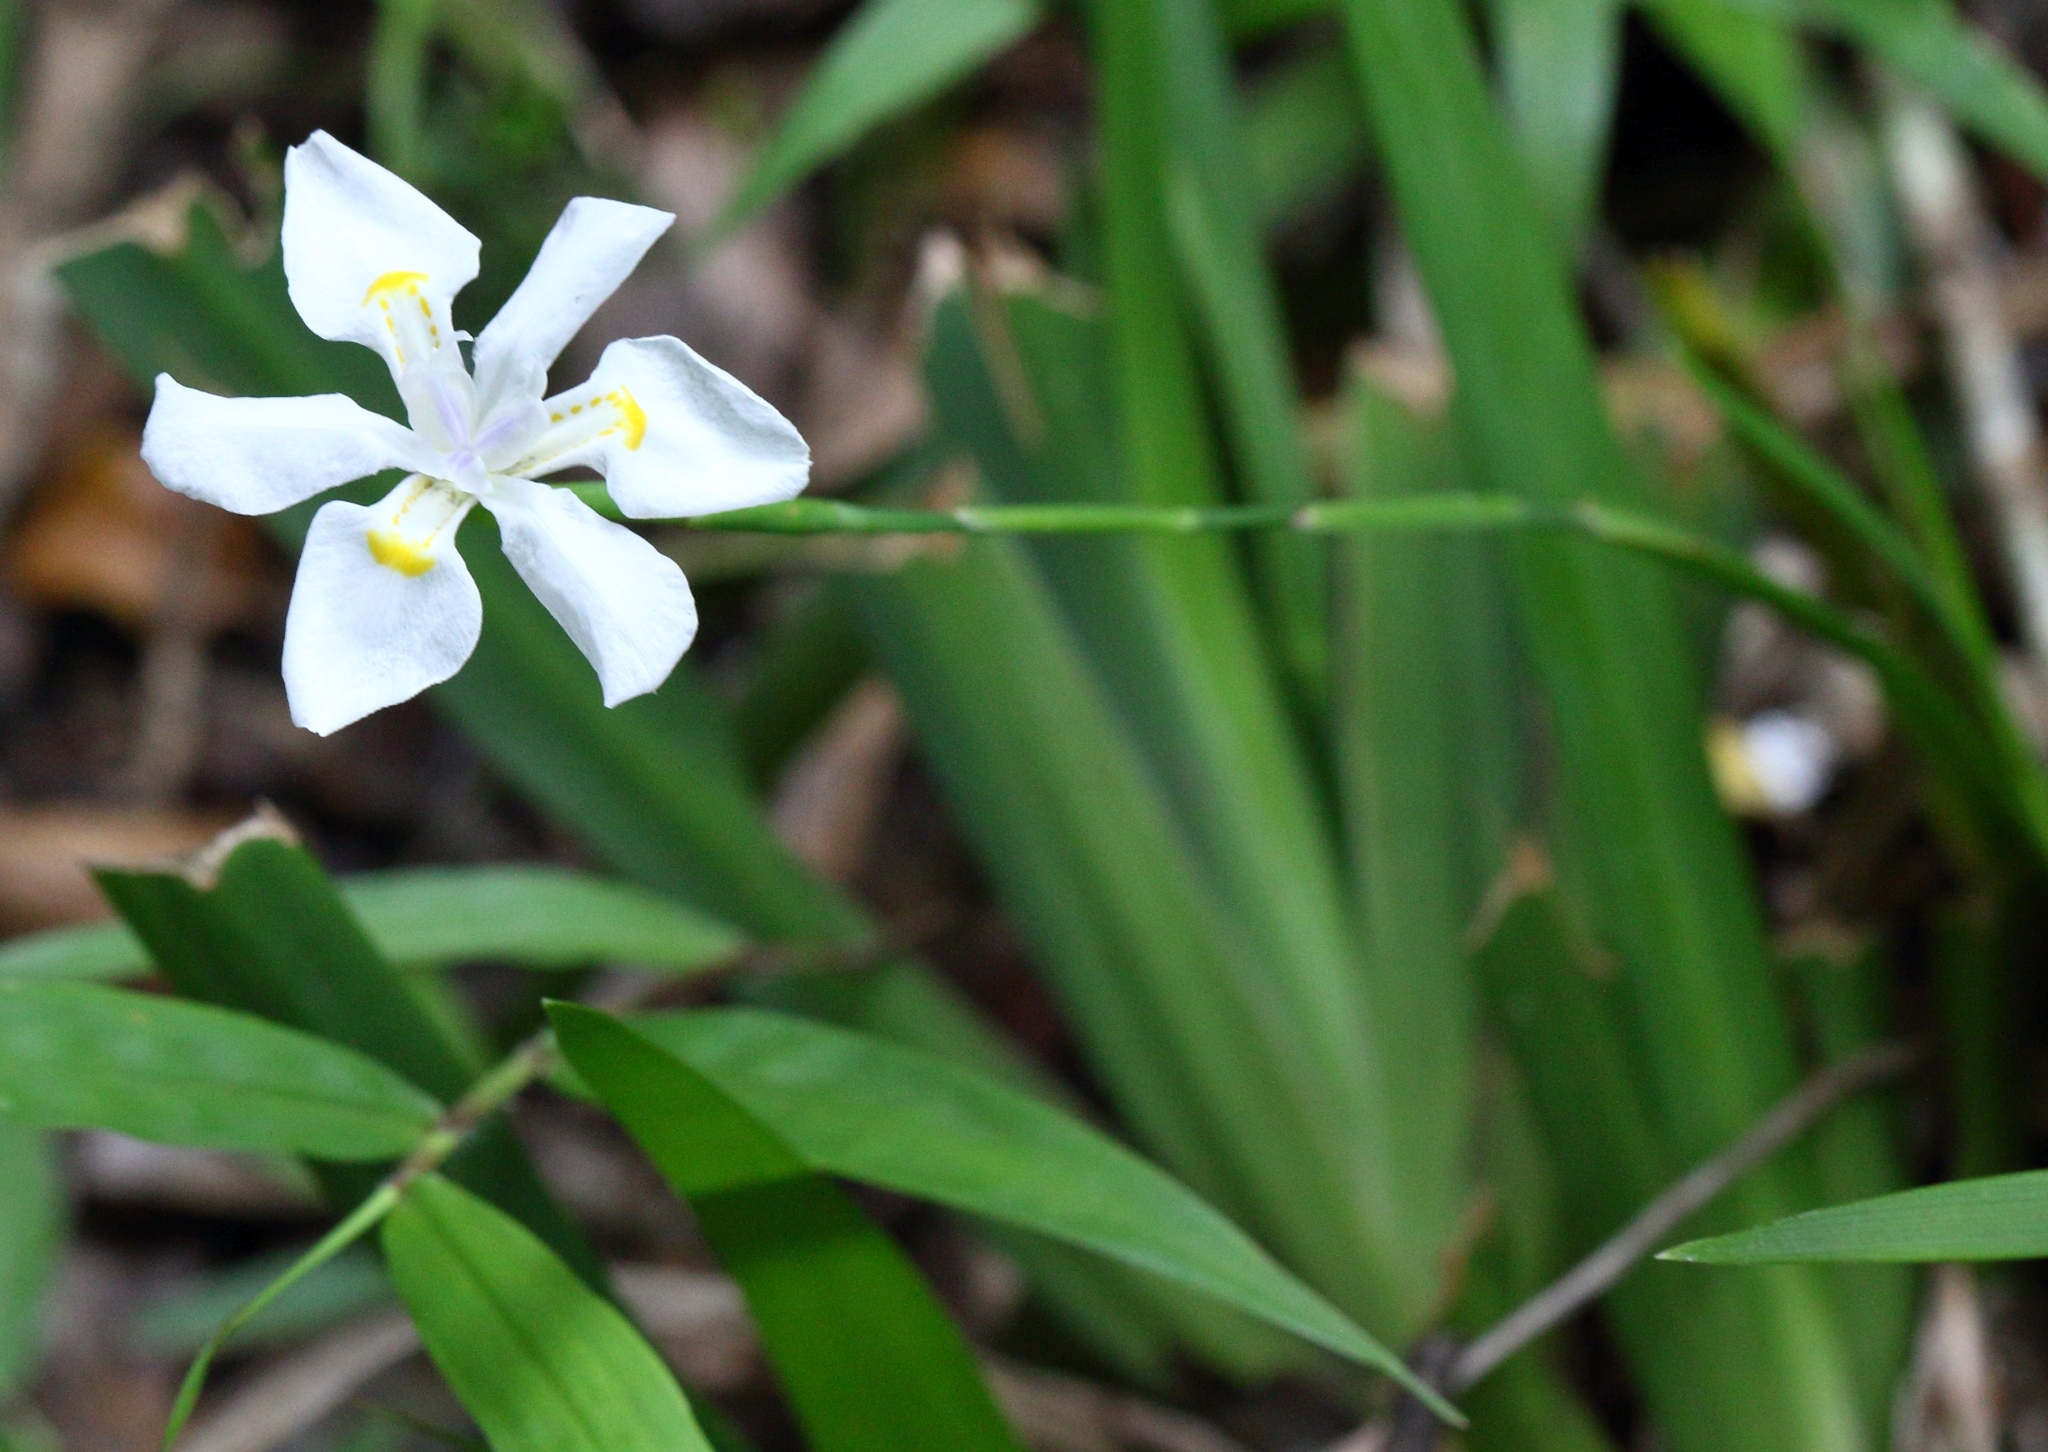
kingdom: Plantae
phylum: Tracheophyta
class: Liliopsida
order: Asparagales
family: Iridaceae
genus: Dietes
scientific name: Dietes iridioides
